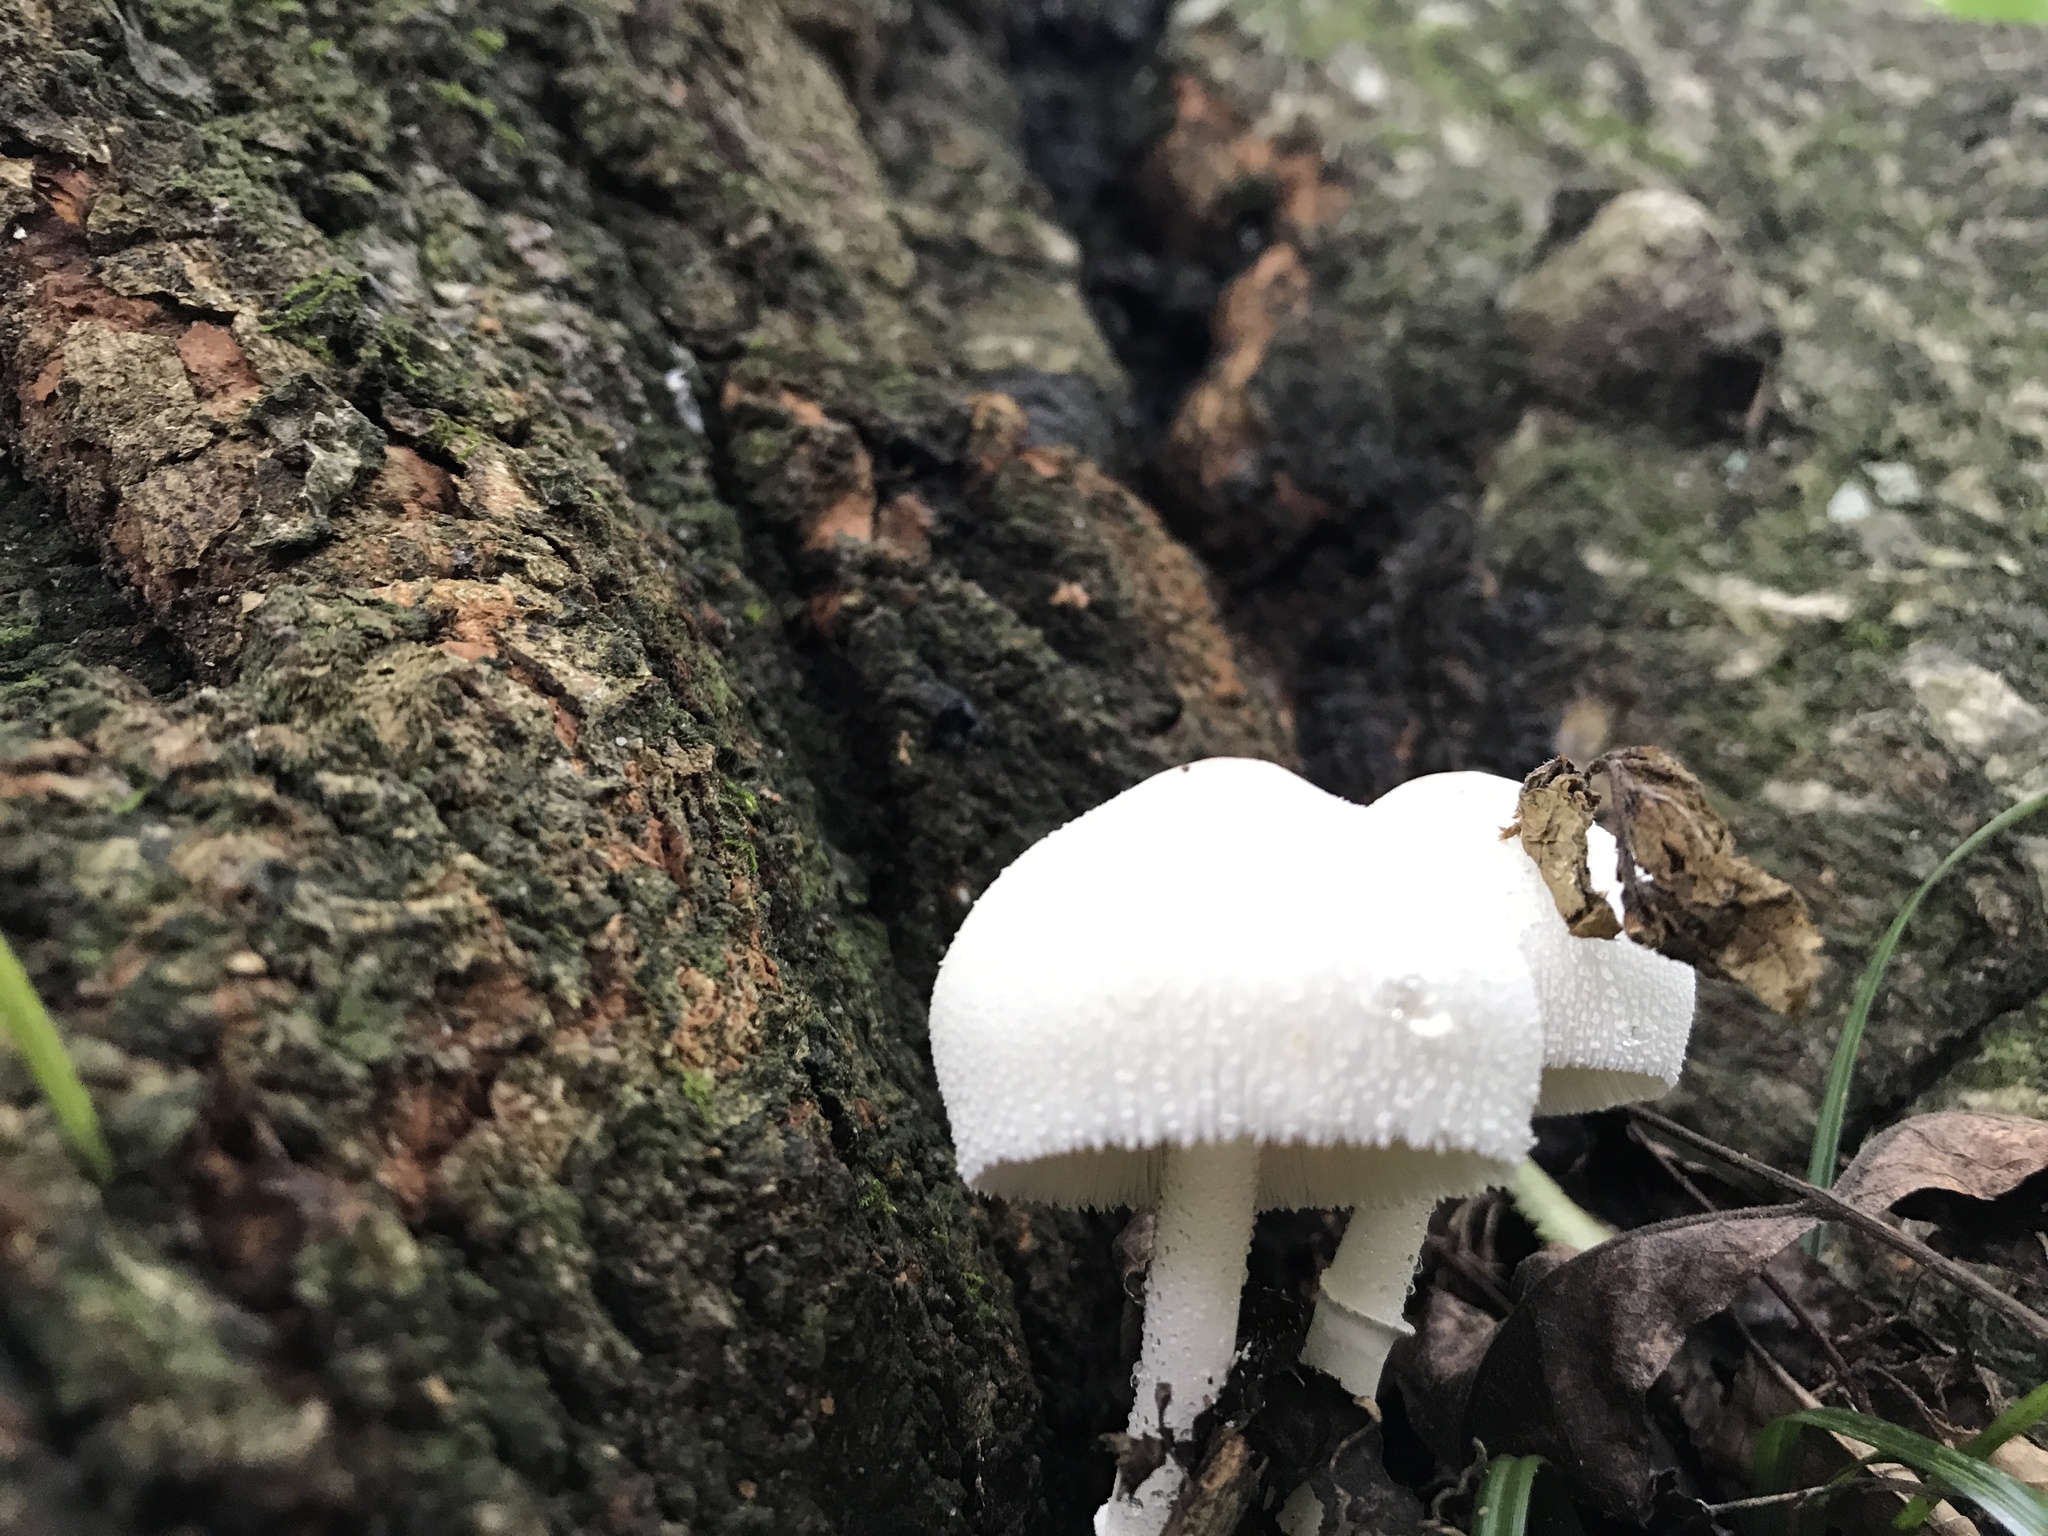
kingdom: Fungi
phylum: Basidiomycota
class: Agaricomycetes
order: Agaricales
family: Agaricaceae
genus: Leucocoprinus
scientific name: Leucocoprinus cepistipes
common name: Onion-stalk parasol
